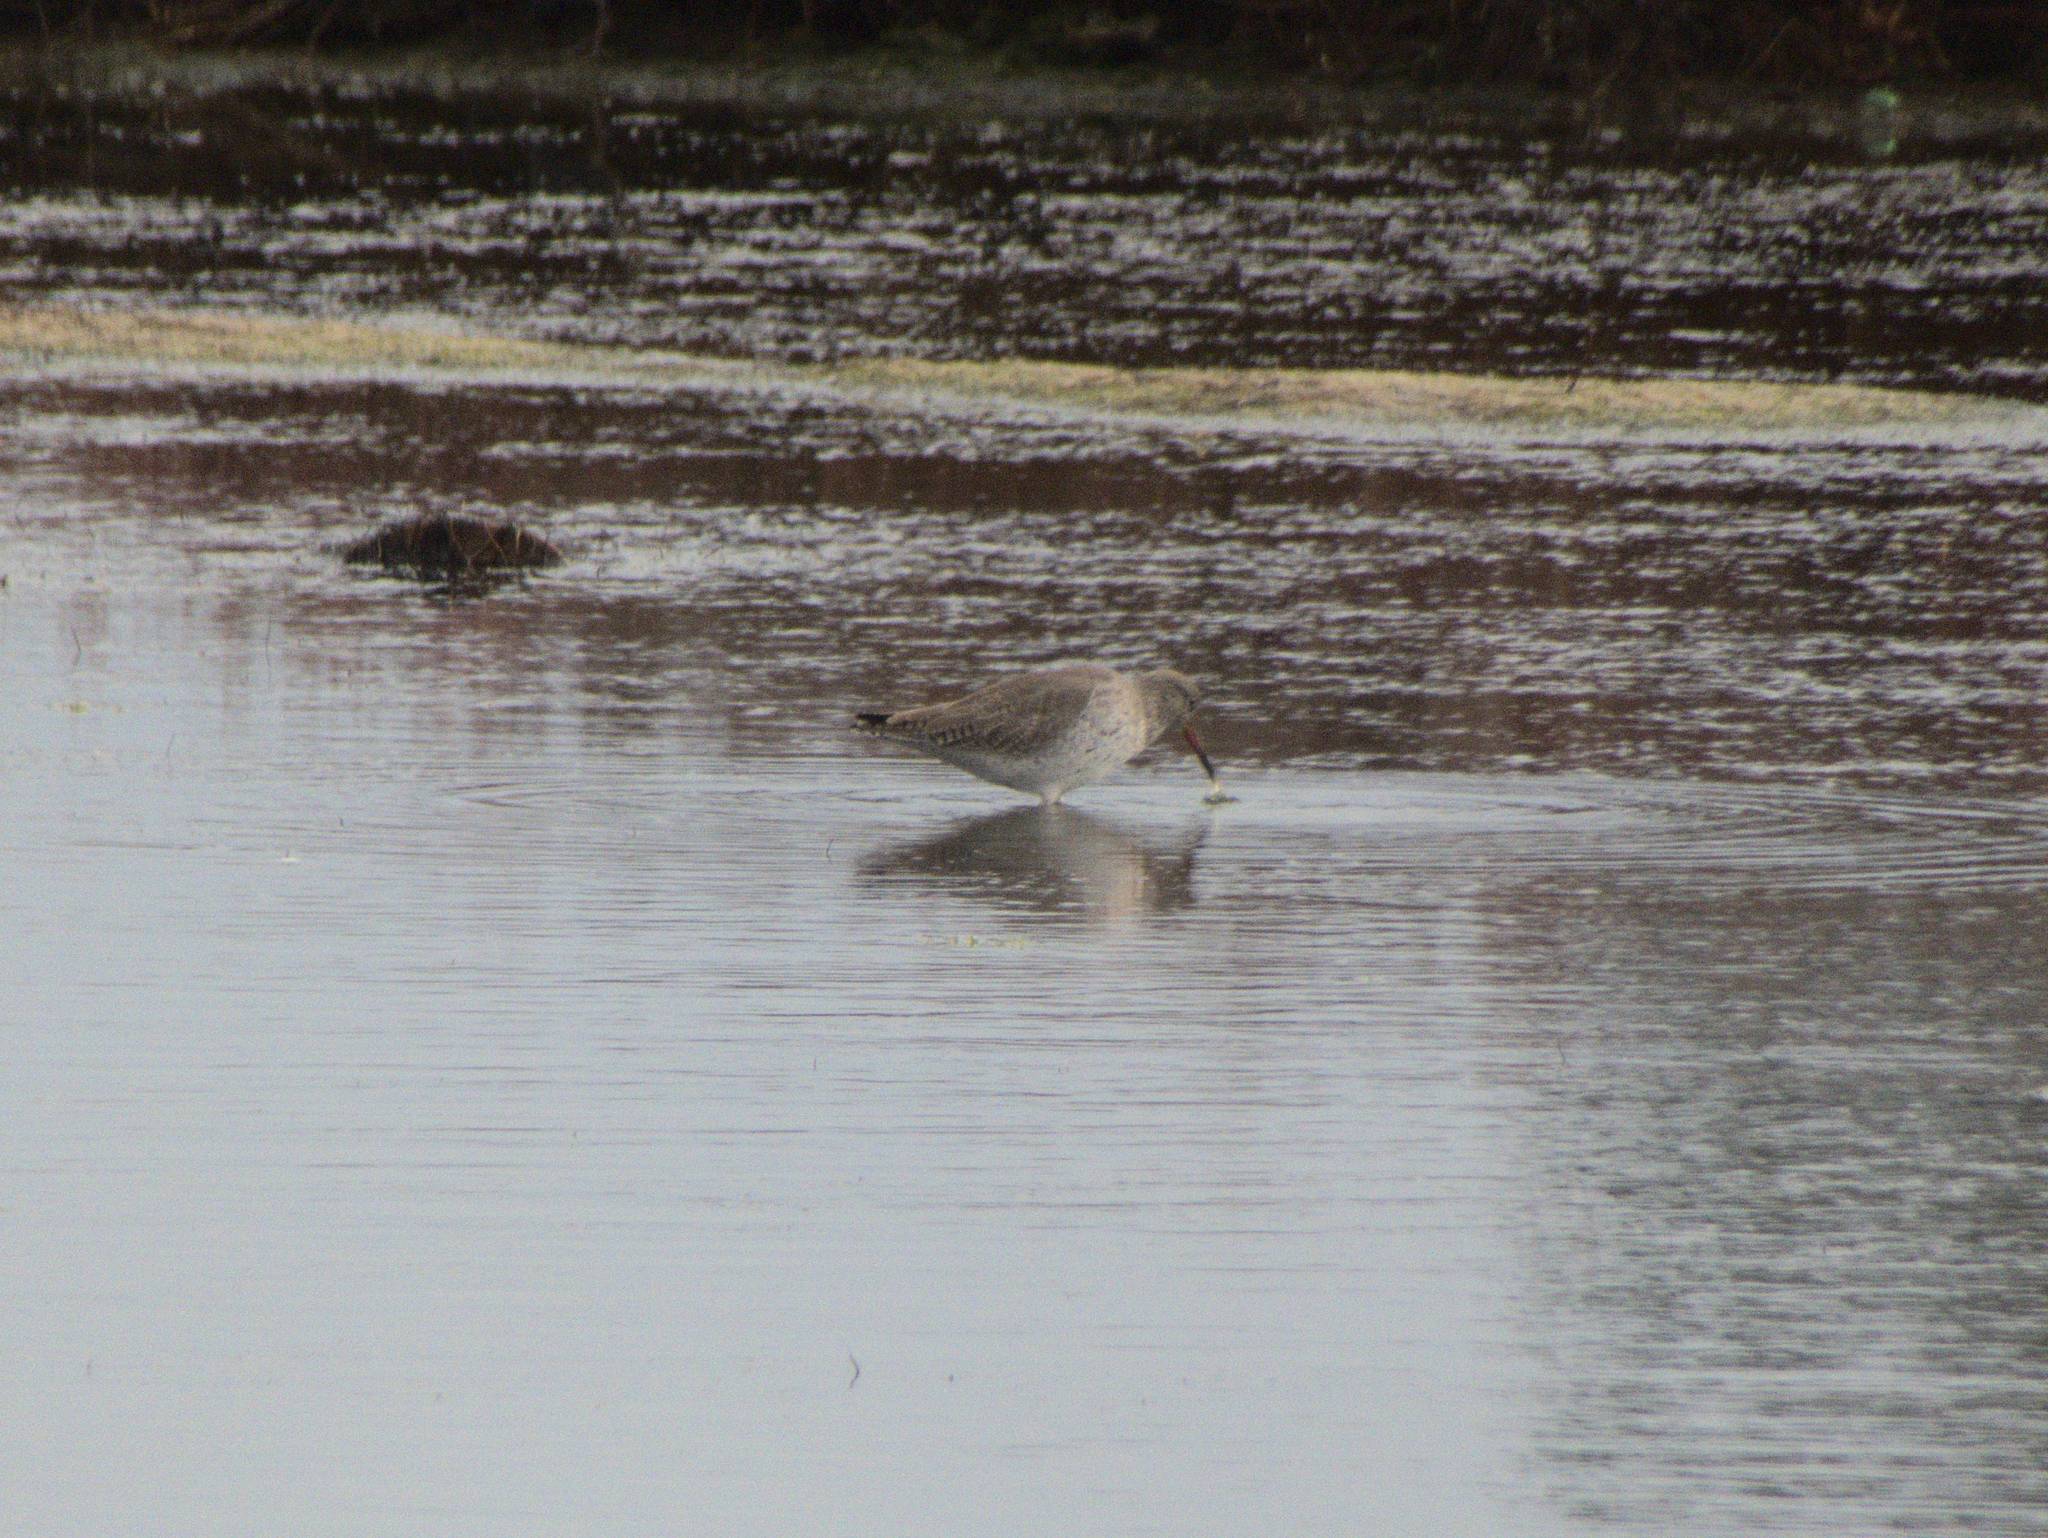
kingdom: Animalia
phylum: Chordata
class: Aves
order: Charadriiformes
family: Scolopacidae
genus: Tringa
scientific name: Tringa totanus
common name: Common redshank
